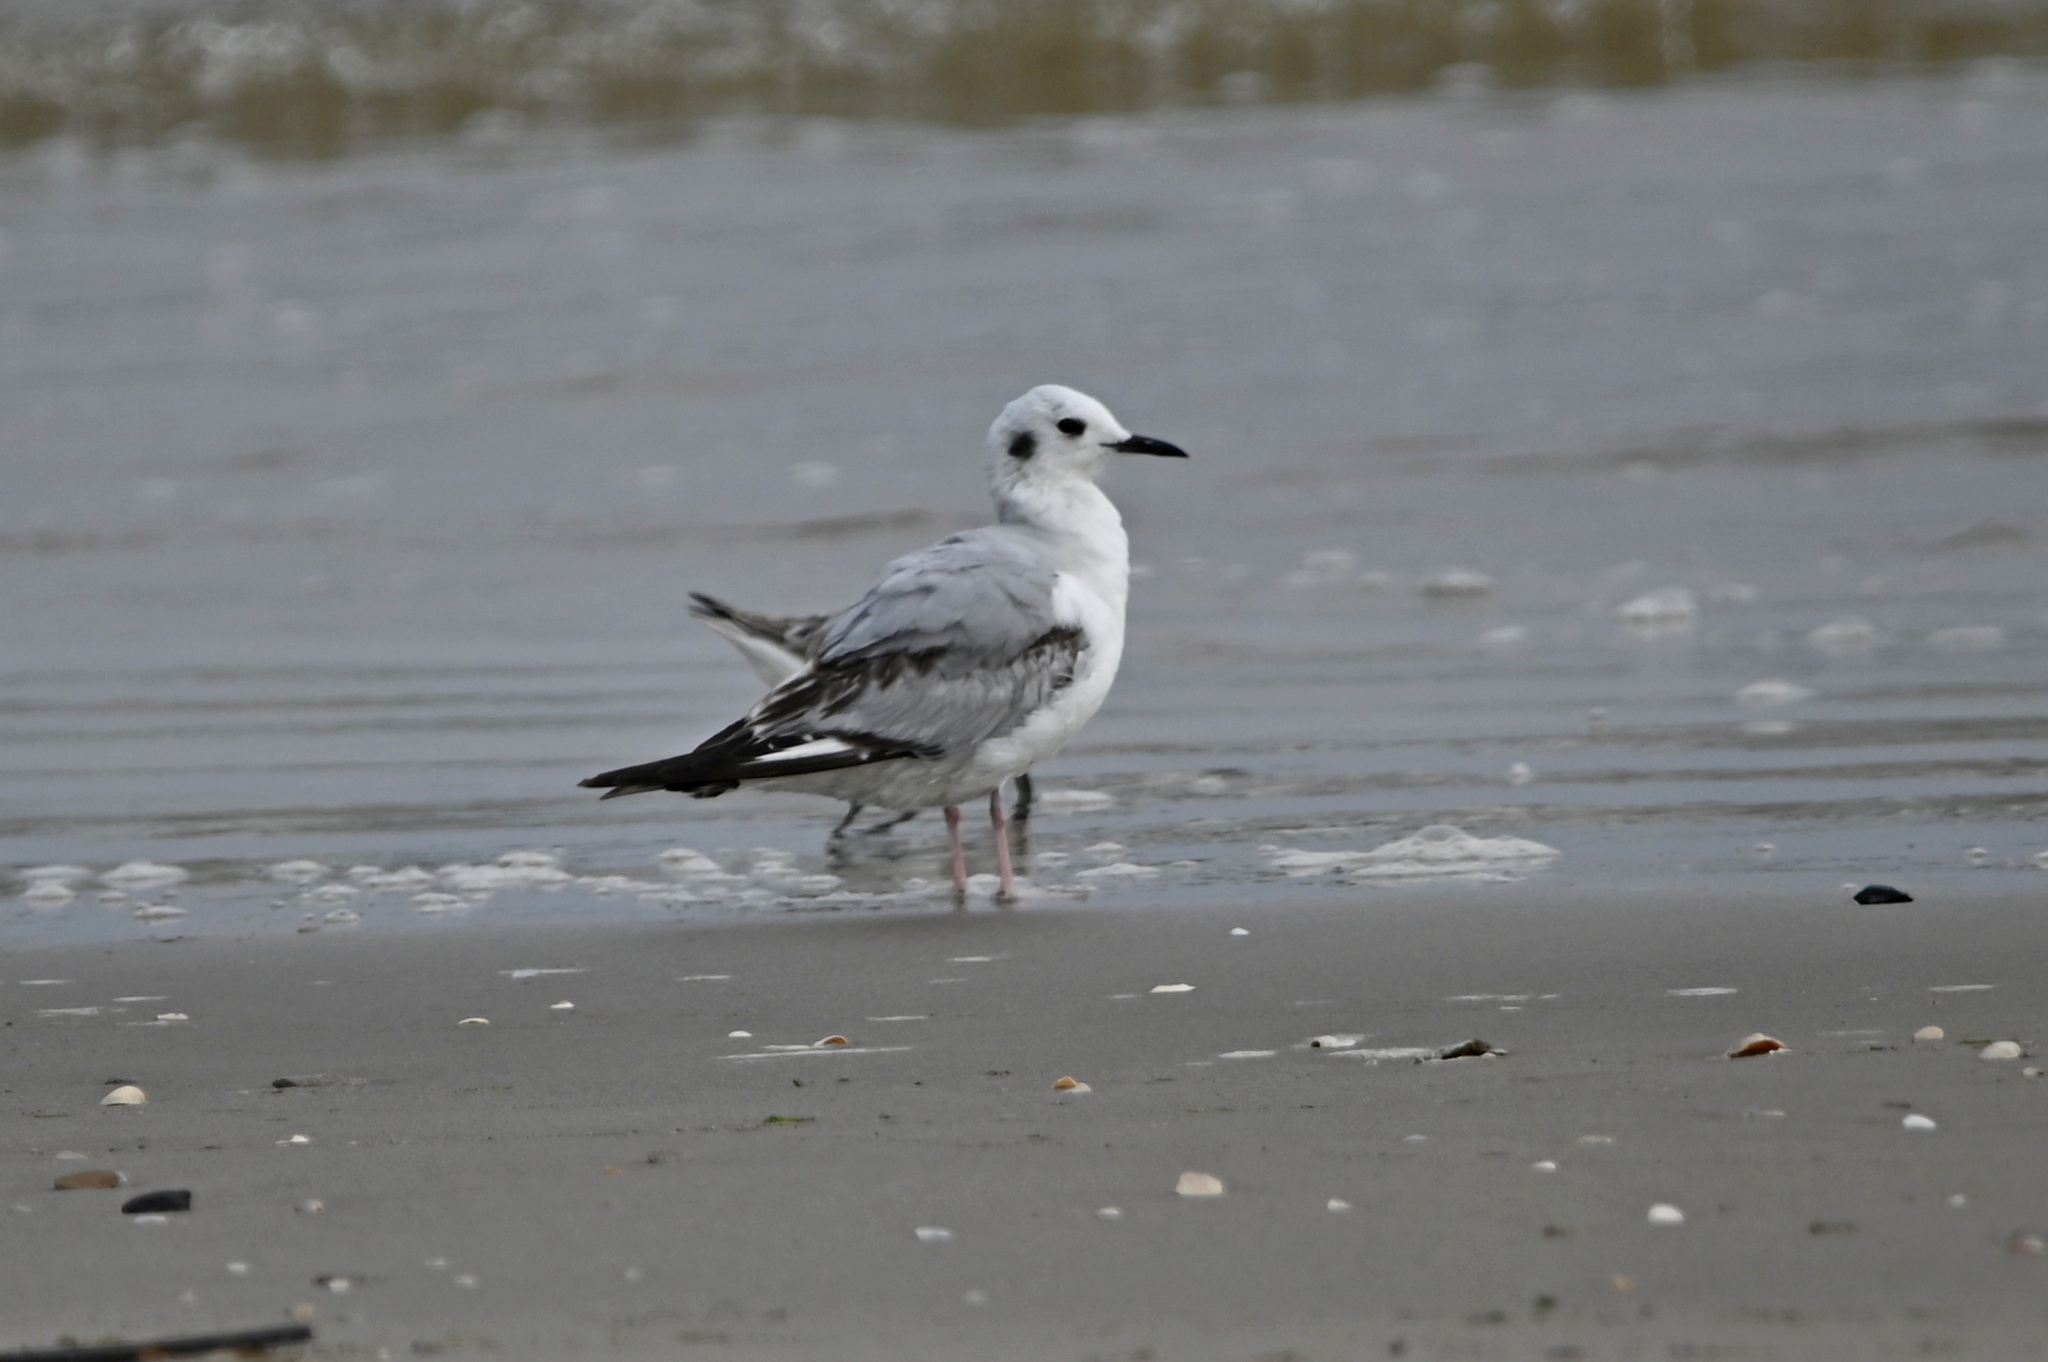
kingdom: Animalia
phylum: Chordata
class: Aves
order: Charadriiformes
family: Laridae
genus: Chroicocephalus
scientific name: Chroicocephalus philadelphia
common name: Bonaparte's gull
